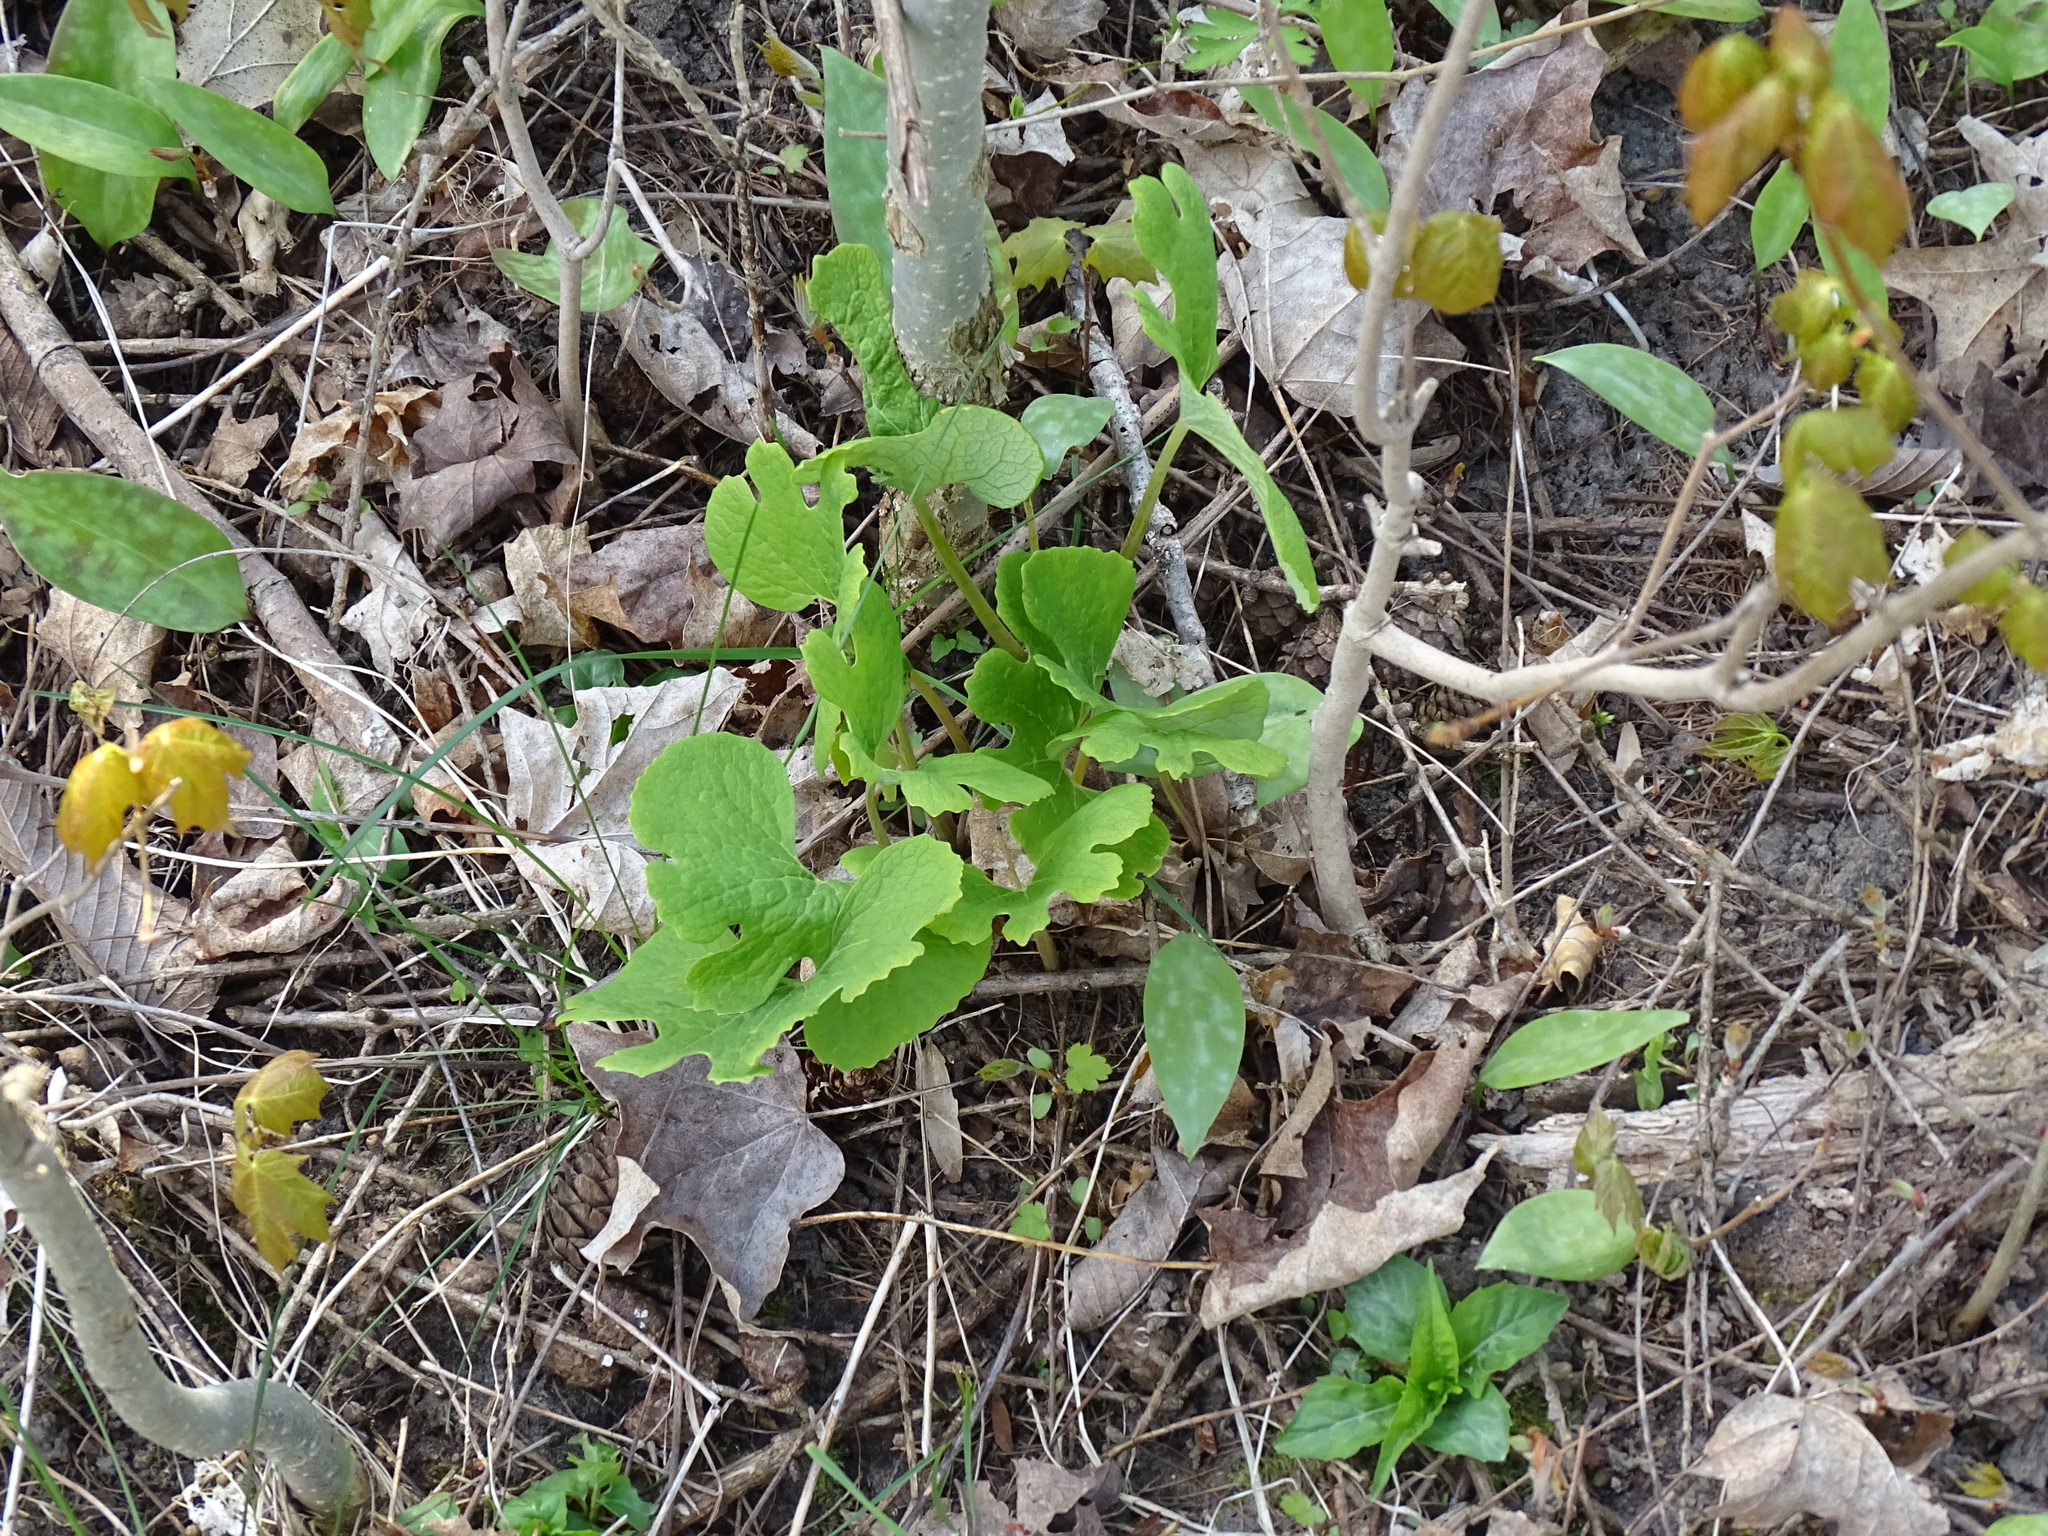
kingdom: Plantae
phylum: Tracheophyta
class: Magnoliopsida
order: Ranunculales
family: Papaveraceae
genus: Sanguinaria
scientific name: Sanguinaria canadensis
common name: Bloodroot
